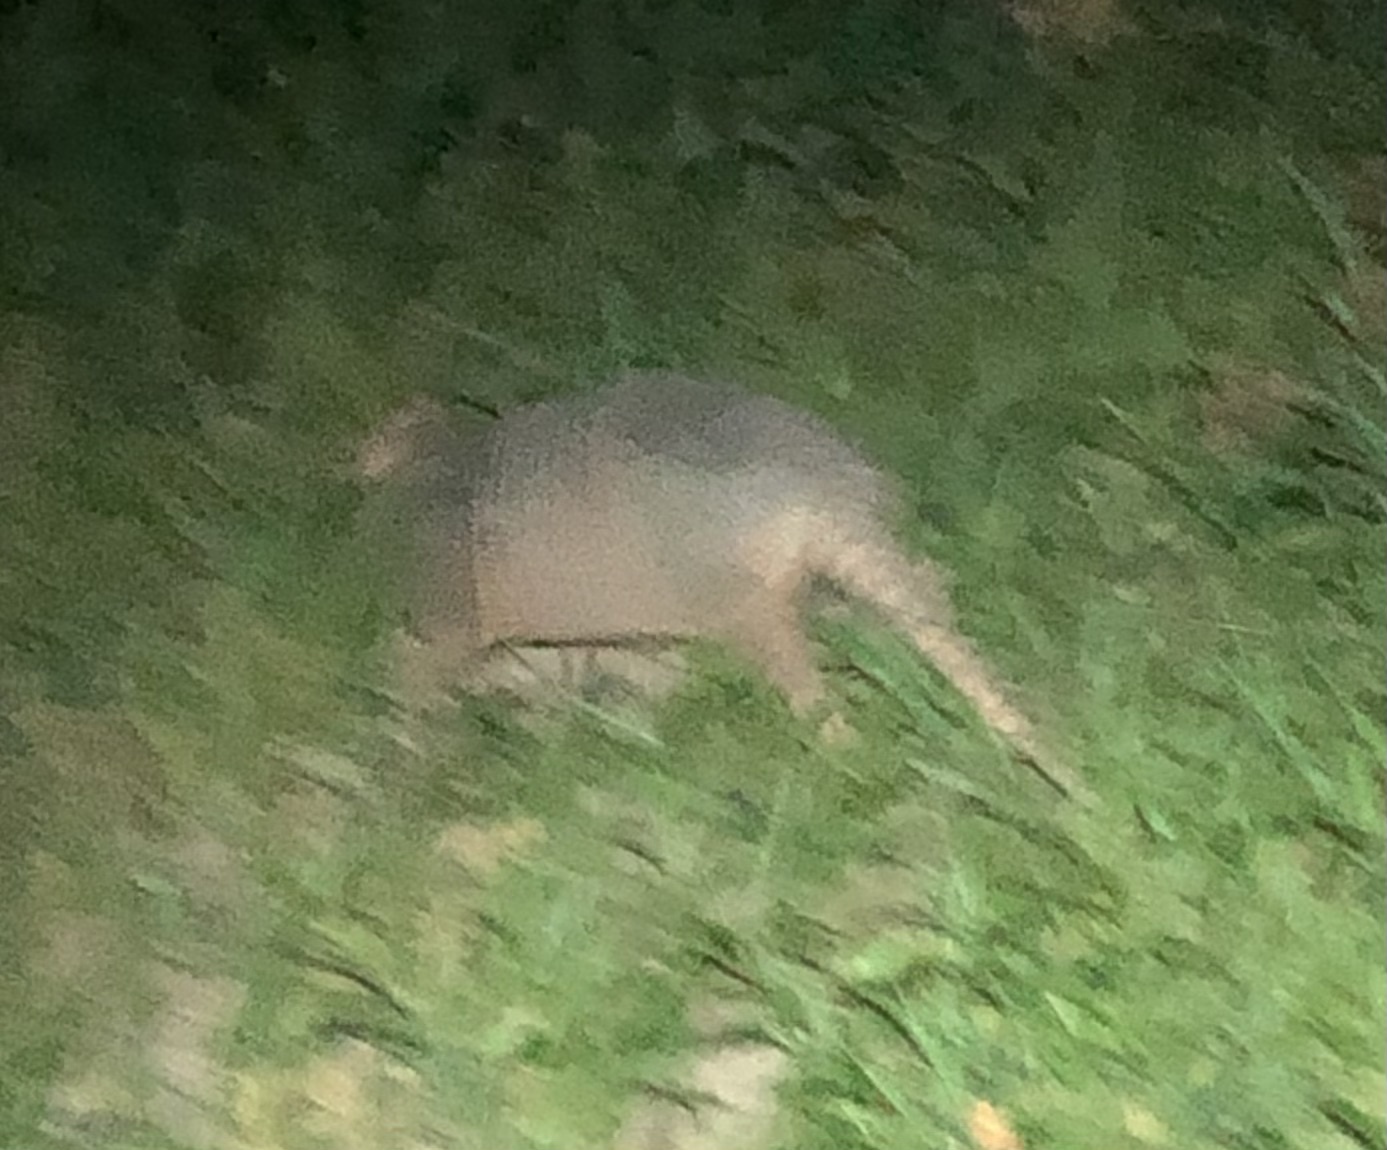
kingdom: Animalia
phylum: Chordata
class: Mammalia
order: Cingulata
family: Dasypodidae
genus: Dasypus
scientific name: Dasypus novemcinctus
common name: Nine-banded armadillo
